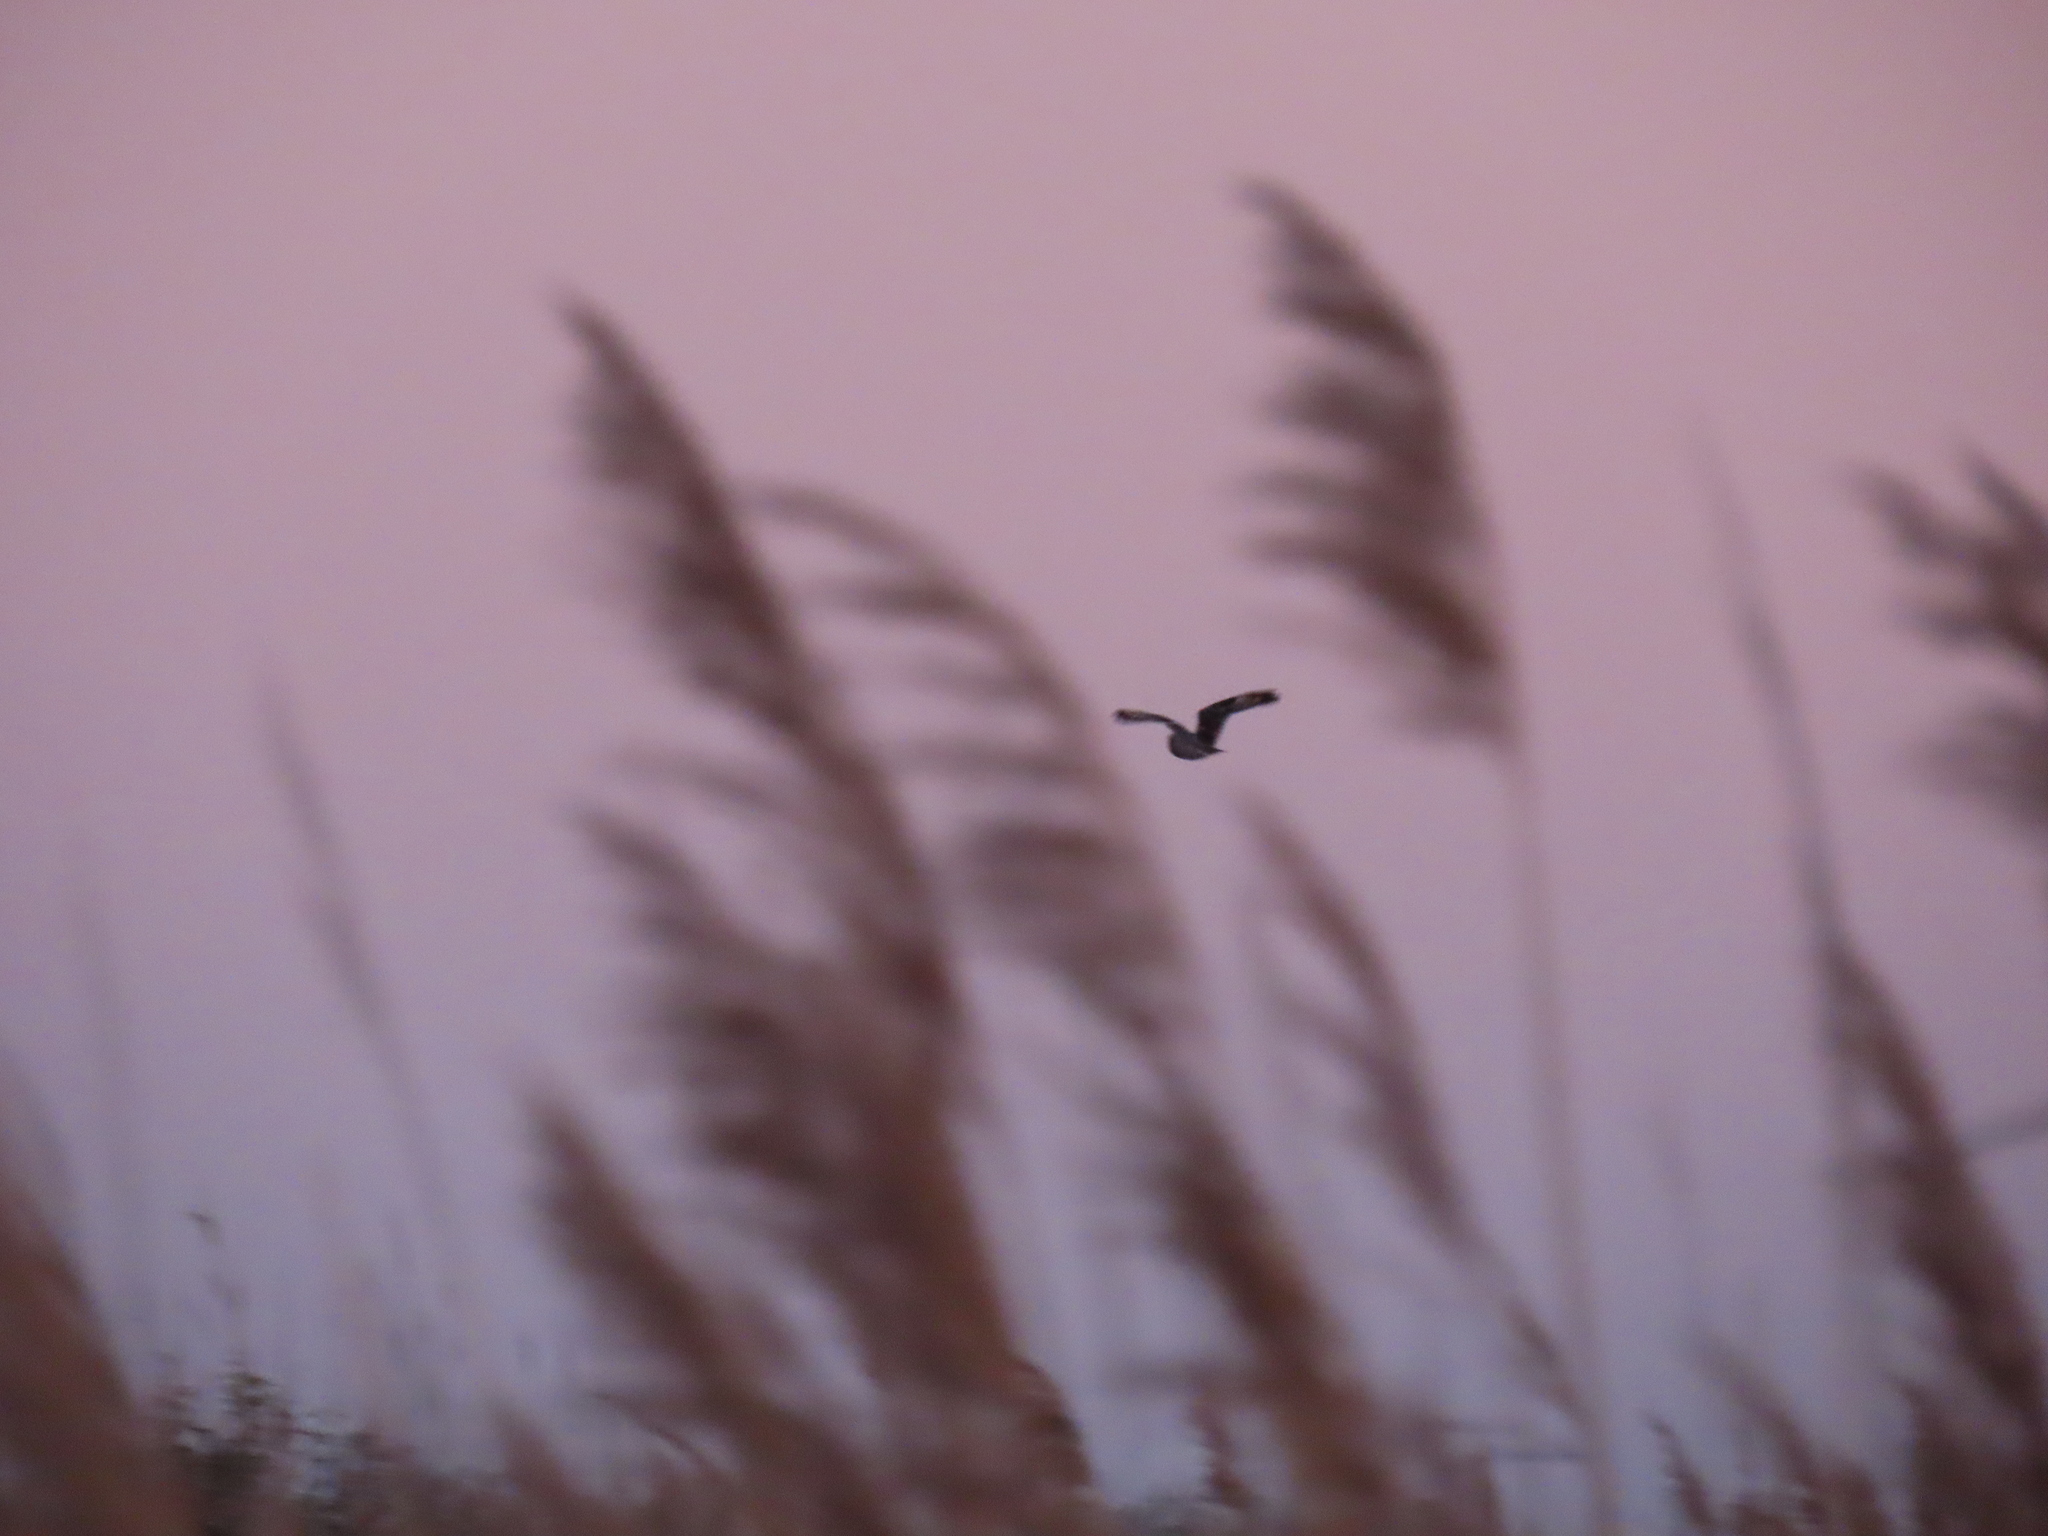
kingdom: Animalia
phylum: Chordata
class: Aves
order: Strigiformes
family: Strigidae
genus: Asio
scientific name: Asio flammeus
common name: Short-eared owl
